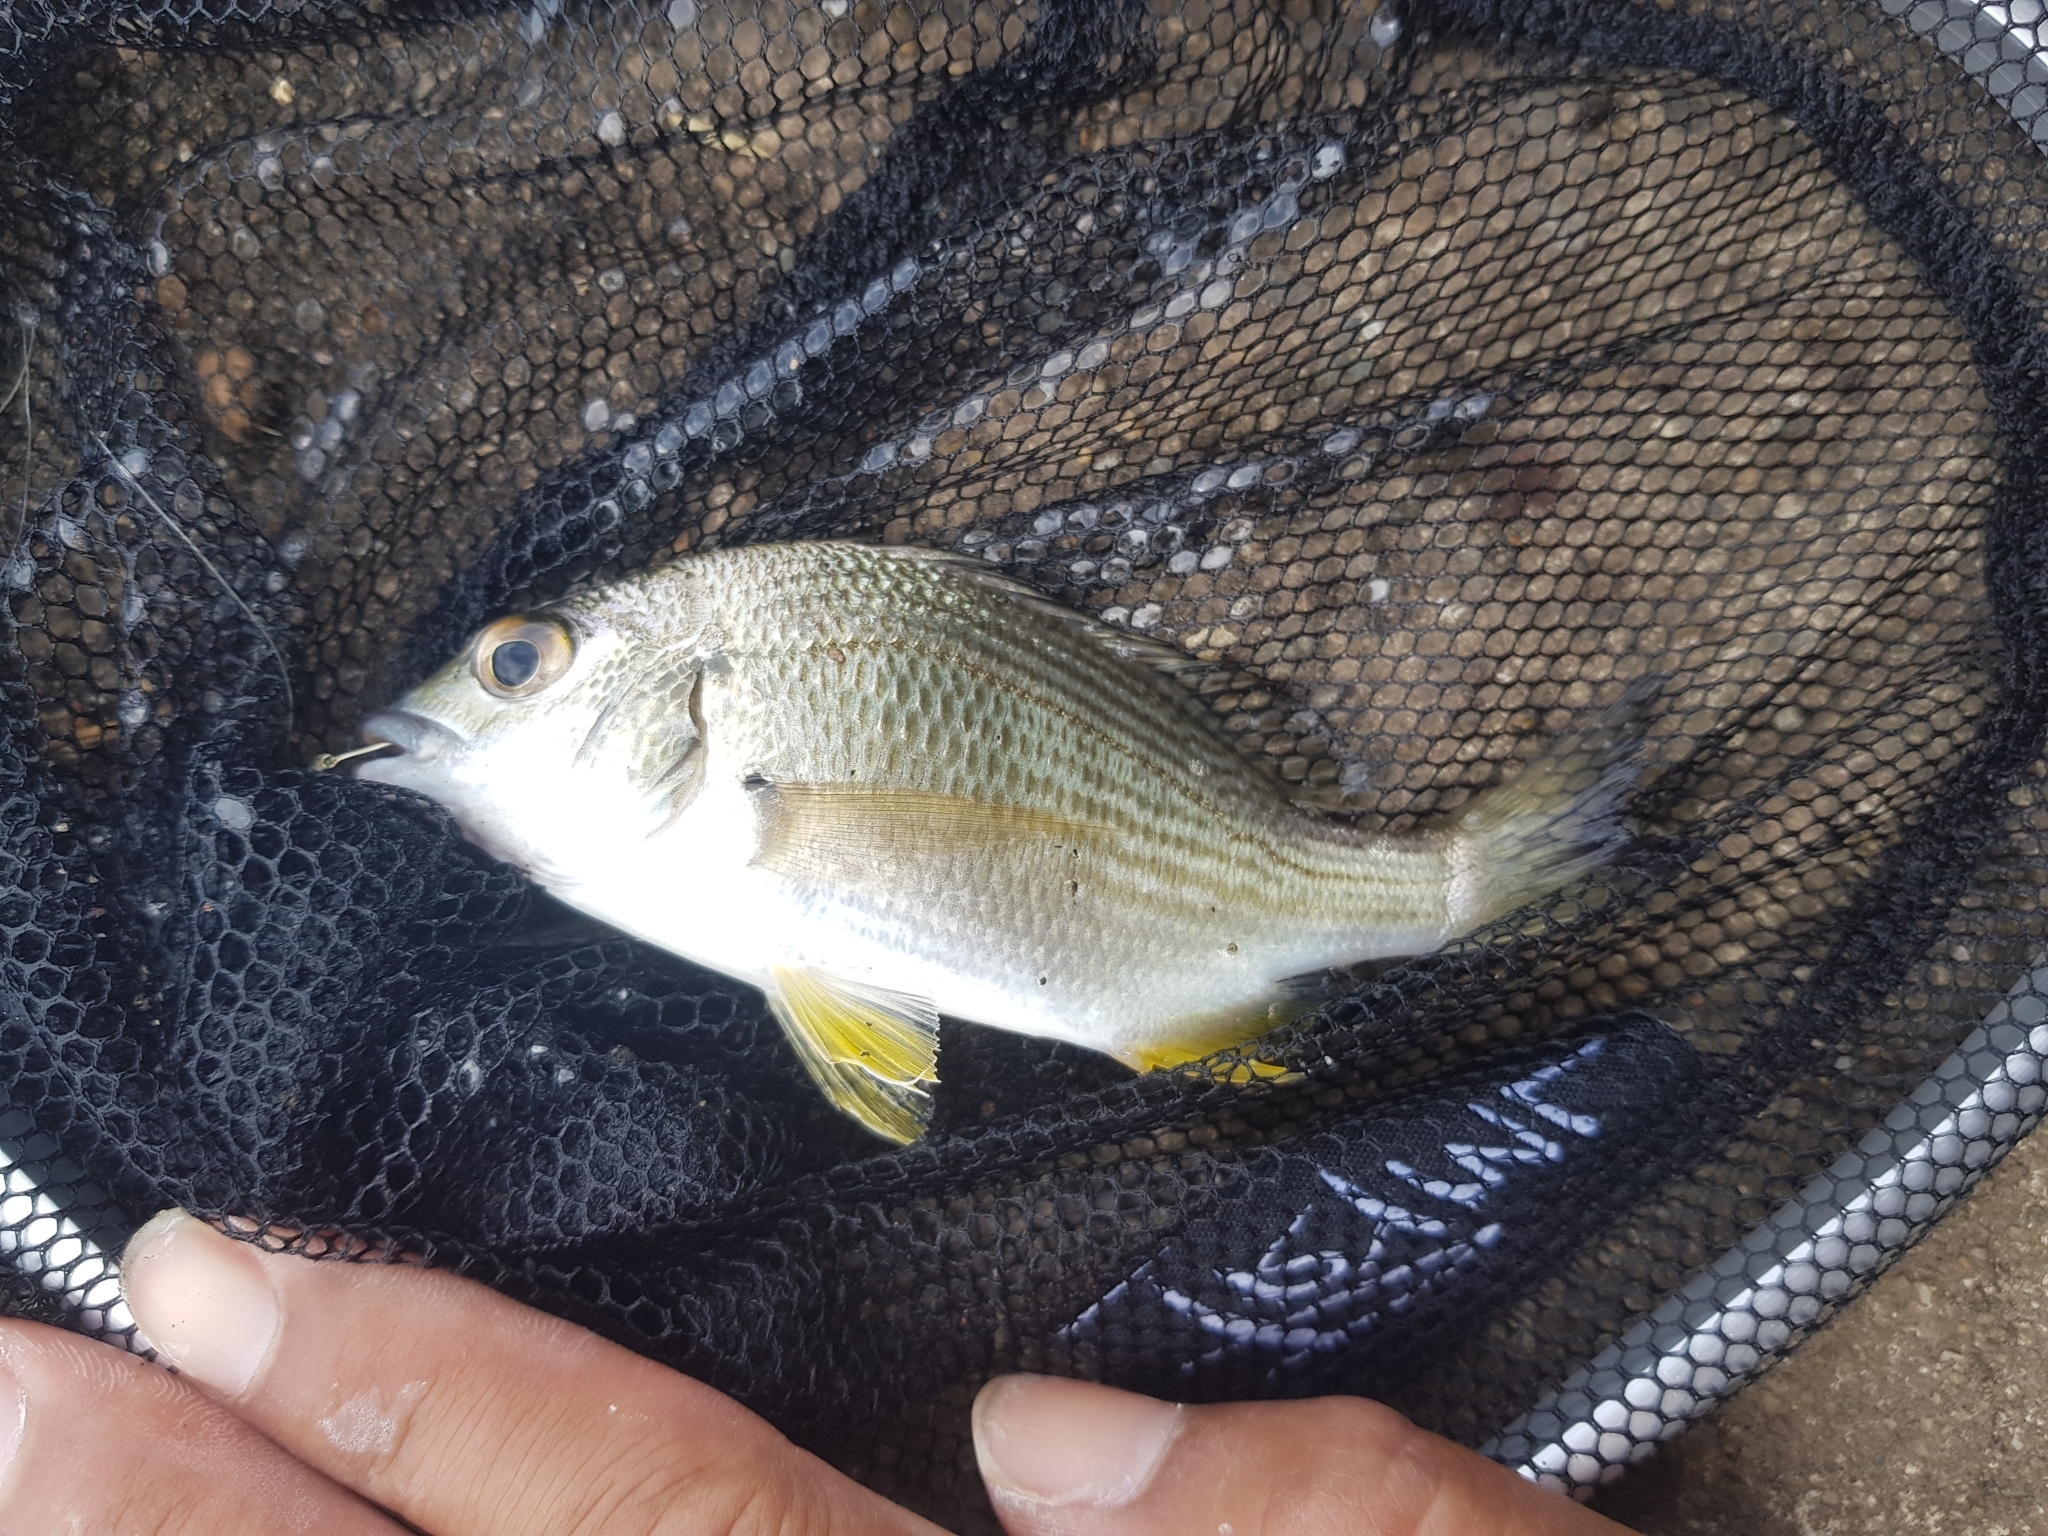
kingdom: Animalia
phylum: Chordata
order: Perciformes
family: Sparidae
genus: Acanthopagrus
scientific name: Acanthopagrus australis
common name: Surf bream
